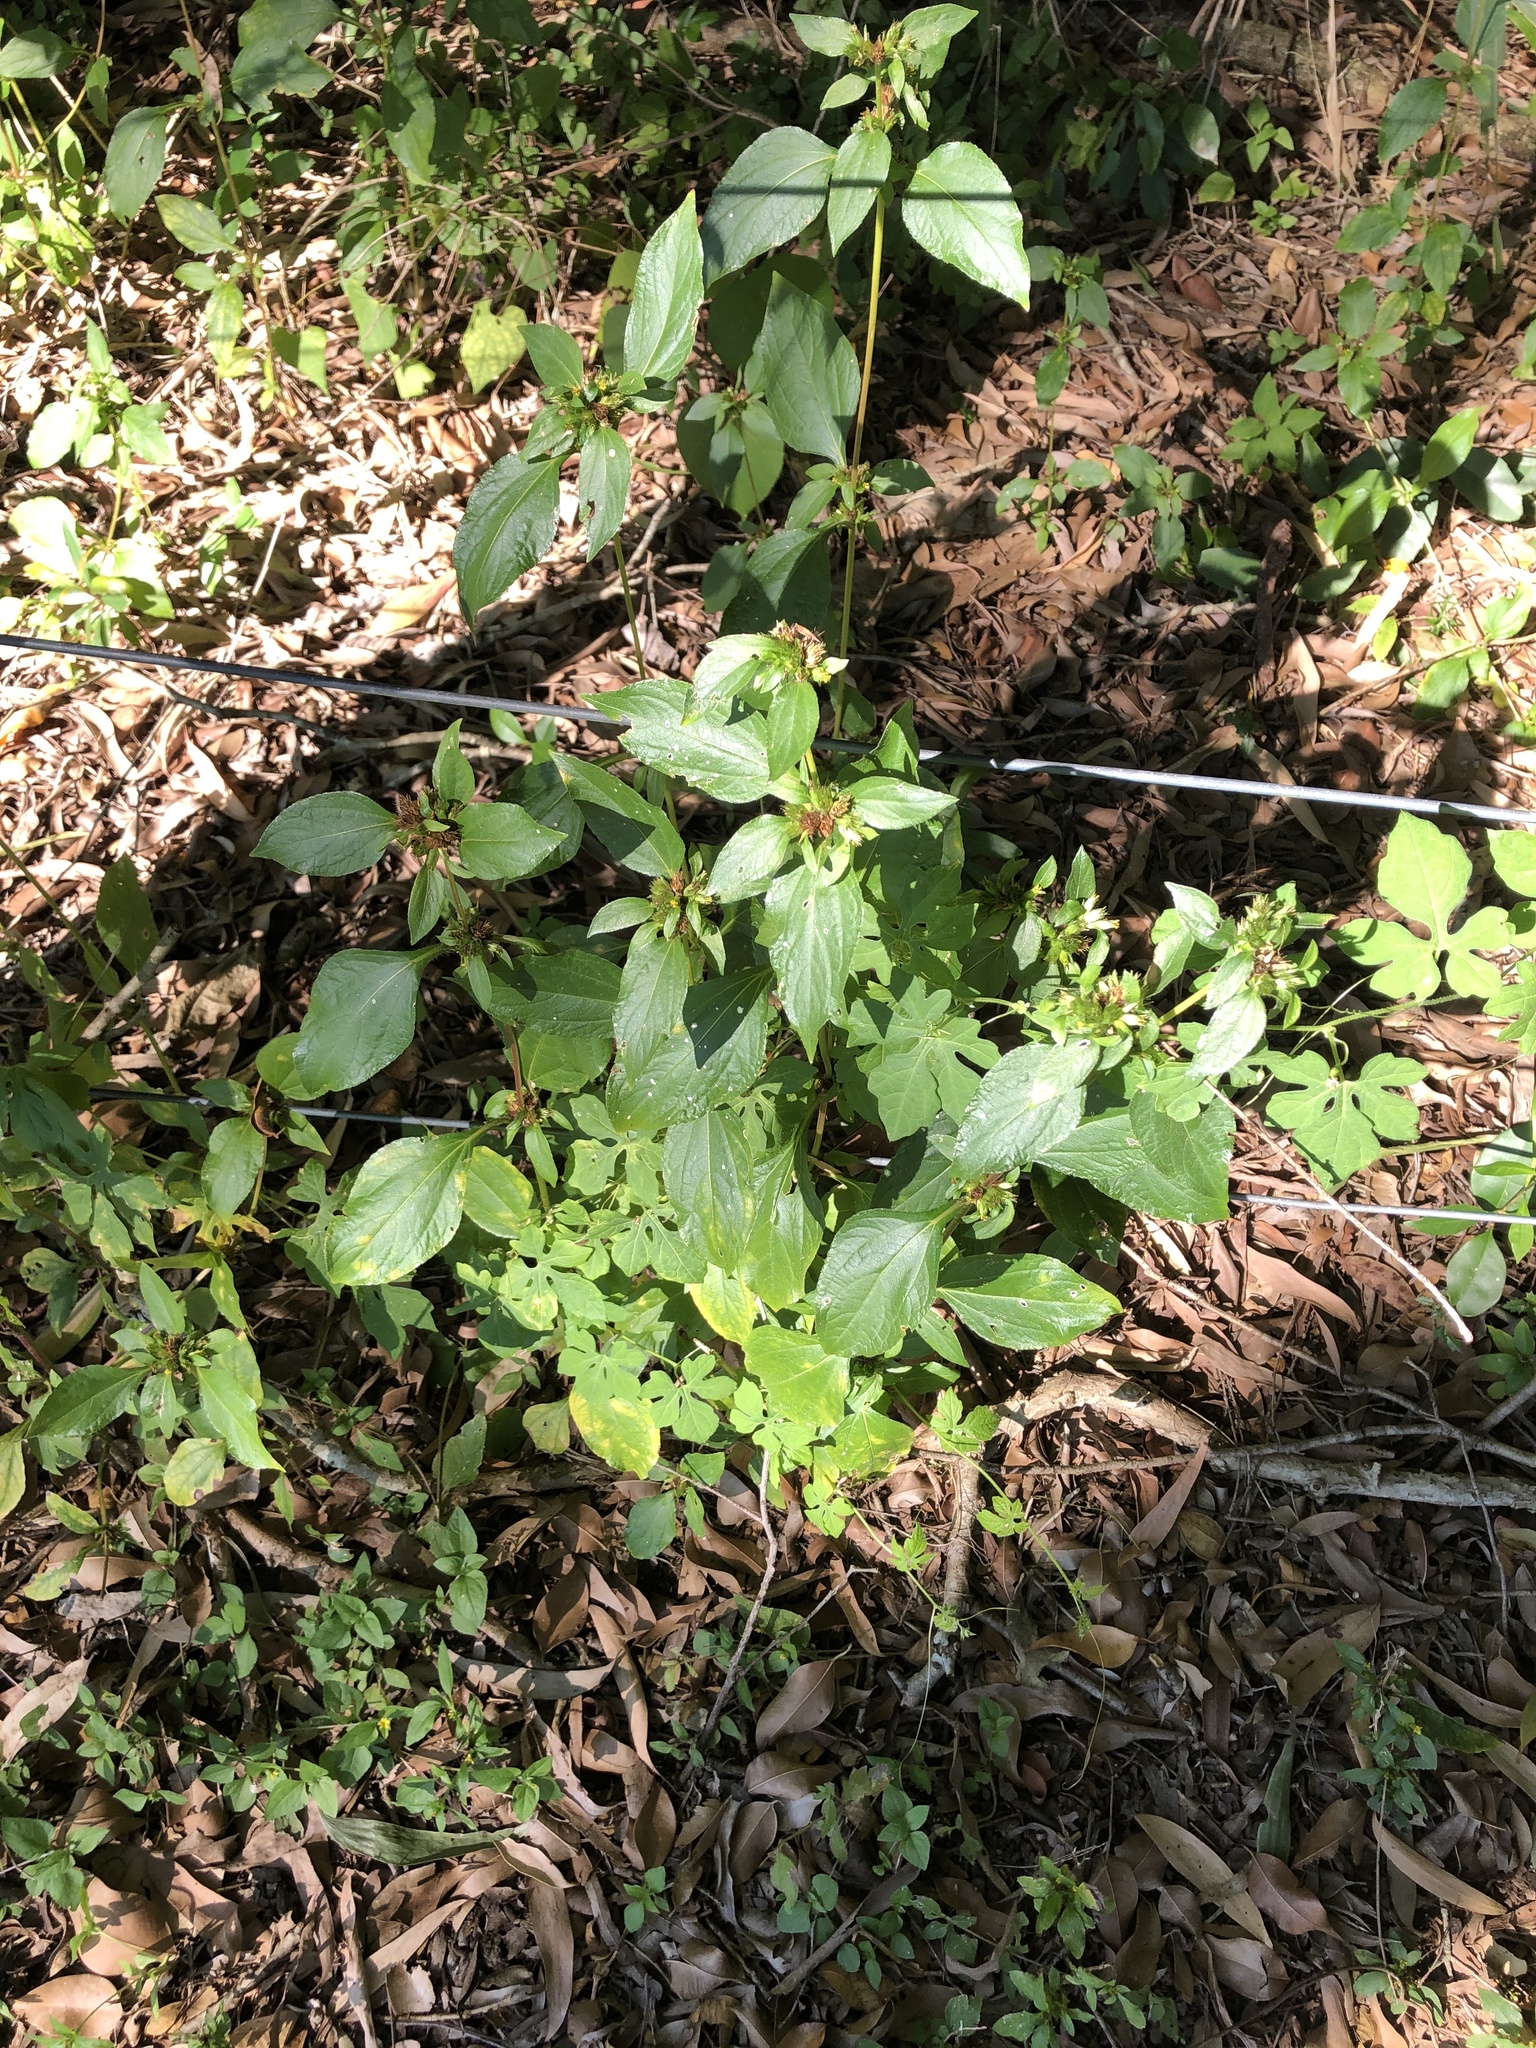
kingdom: Plantae
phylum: Tracheophyta
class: Magnoliopsida
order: Asterales
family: Asteraceae
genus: Synedrella
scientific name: Synedrella nodiflora
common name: Nodeweed
